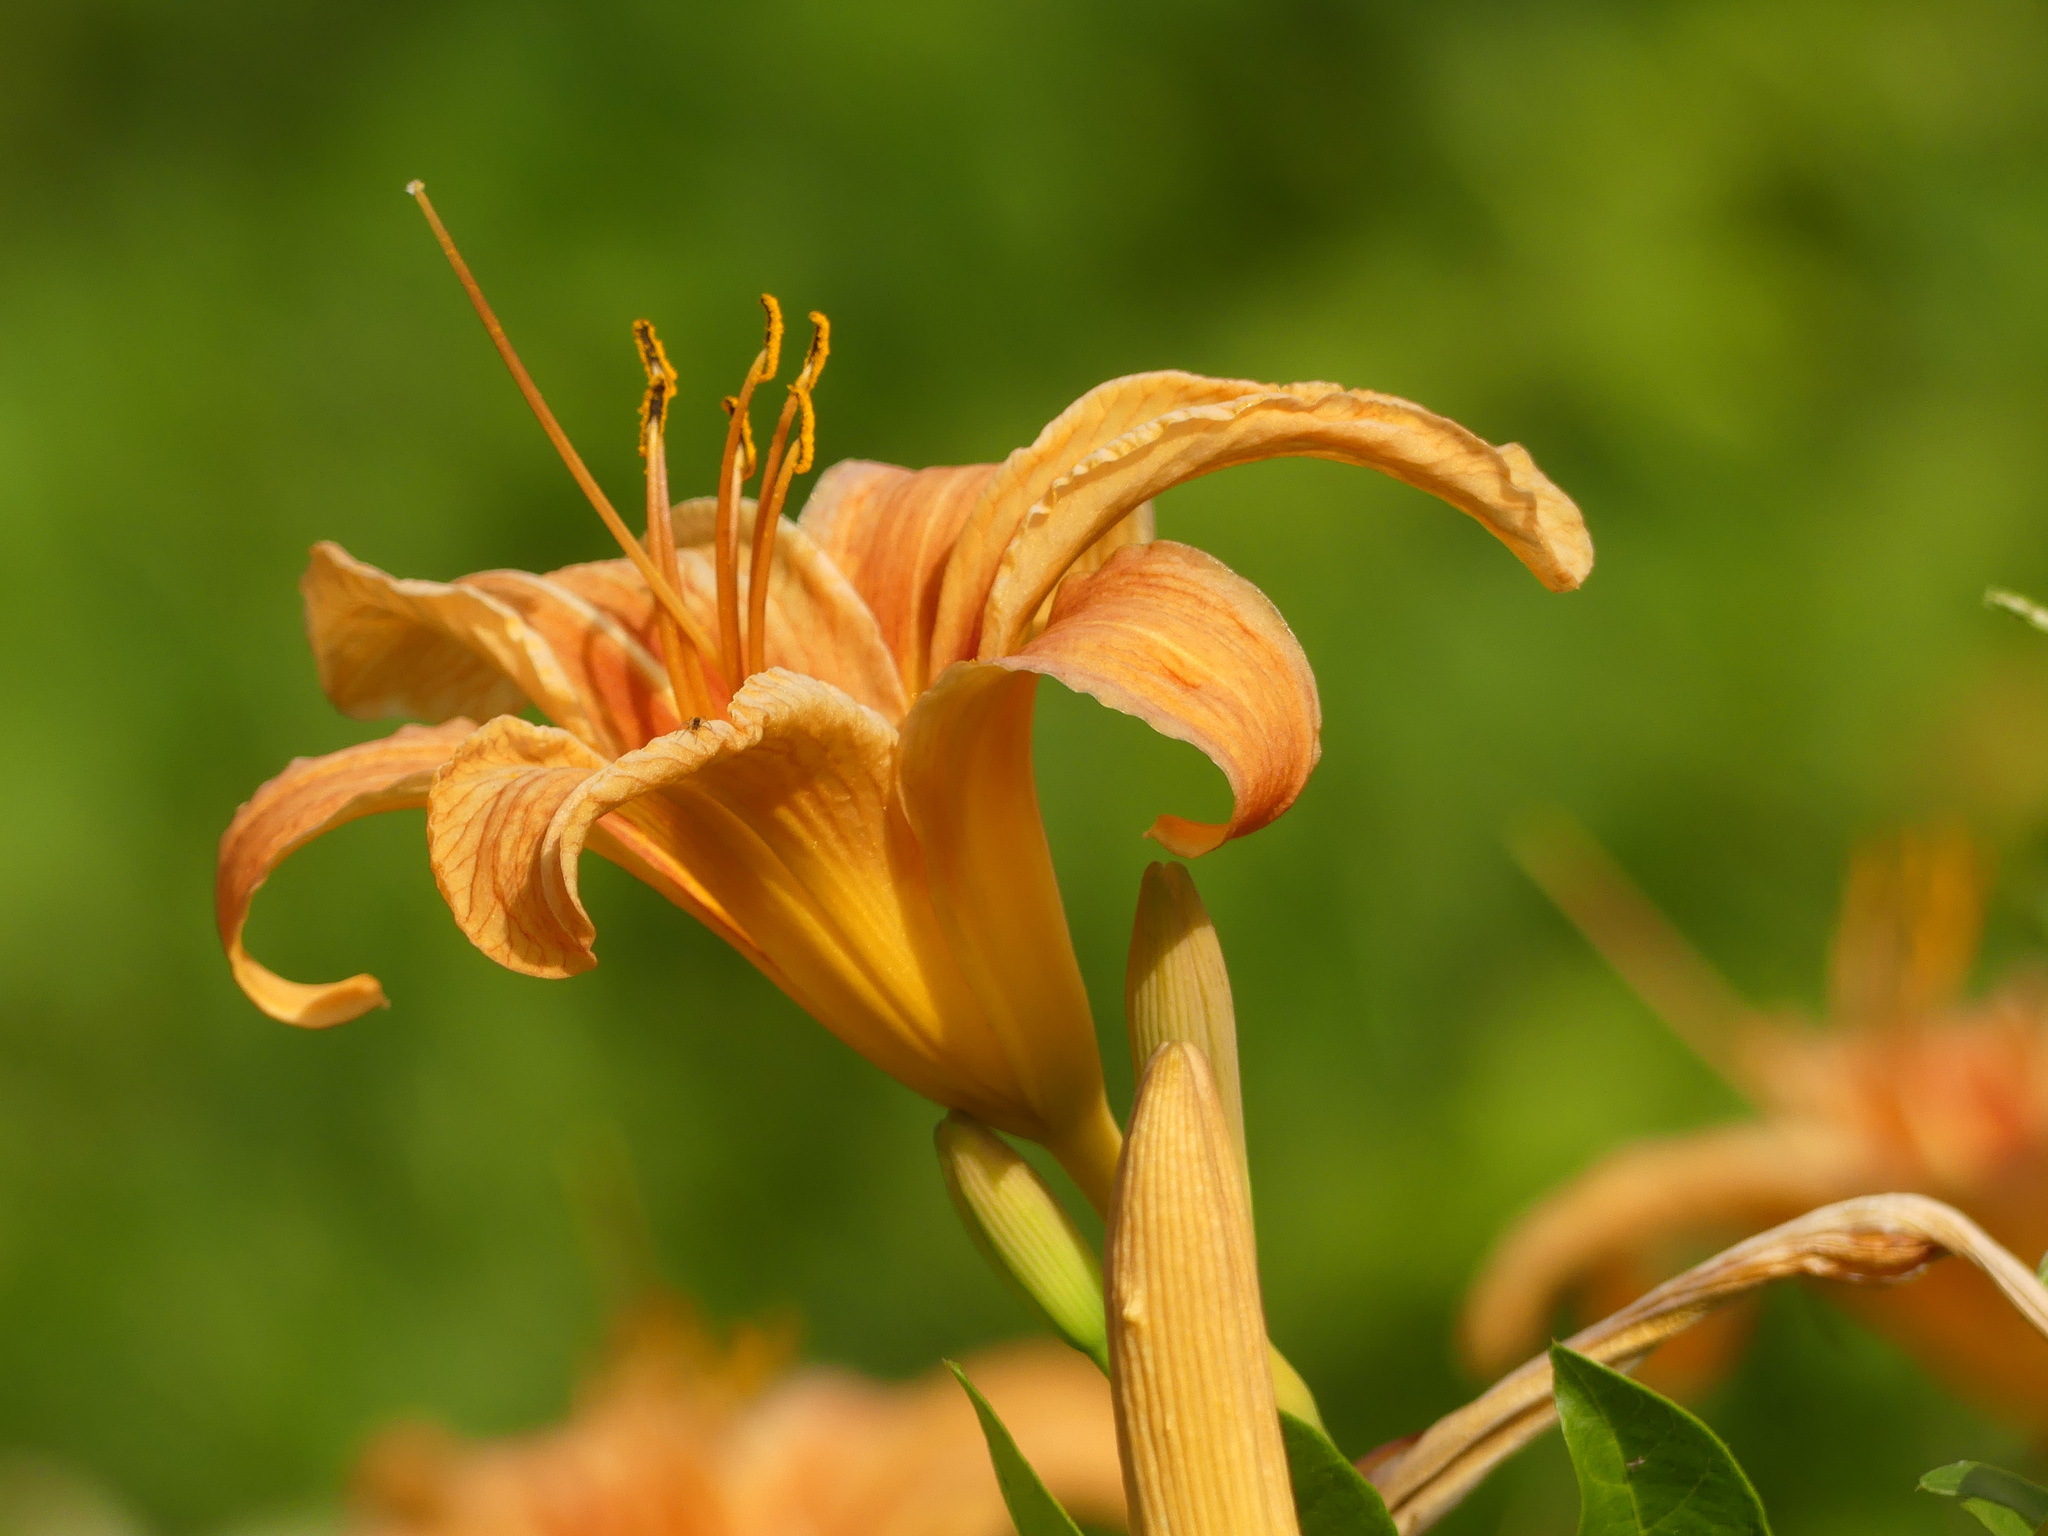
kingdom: Plantae
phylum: Tracheophyta
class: Liliopsida
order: Asparagales
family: Asphodelaceae
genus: Hemerocallis
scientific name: Hemerocallis fulva
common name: Orange day-lily
